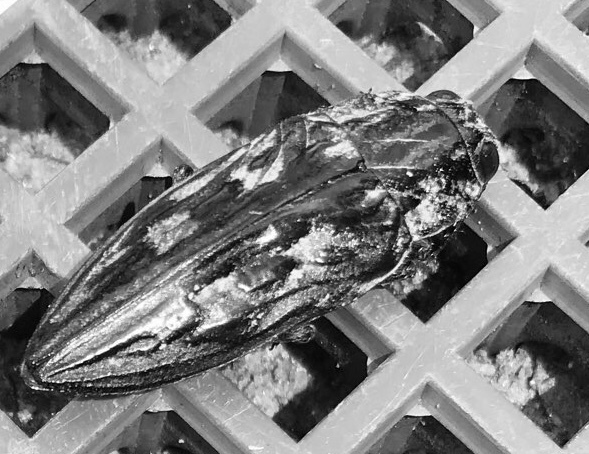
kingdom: Animalia
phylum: Arthropoda
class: Insecta
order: Coleoptera
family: Buprestidae
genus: Chalcophora
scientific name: Chalcophora virginiensis
